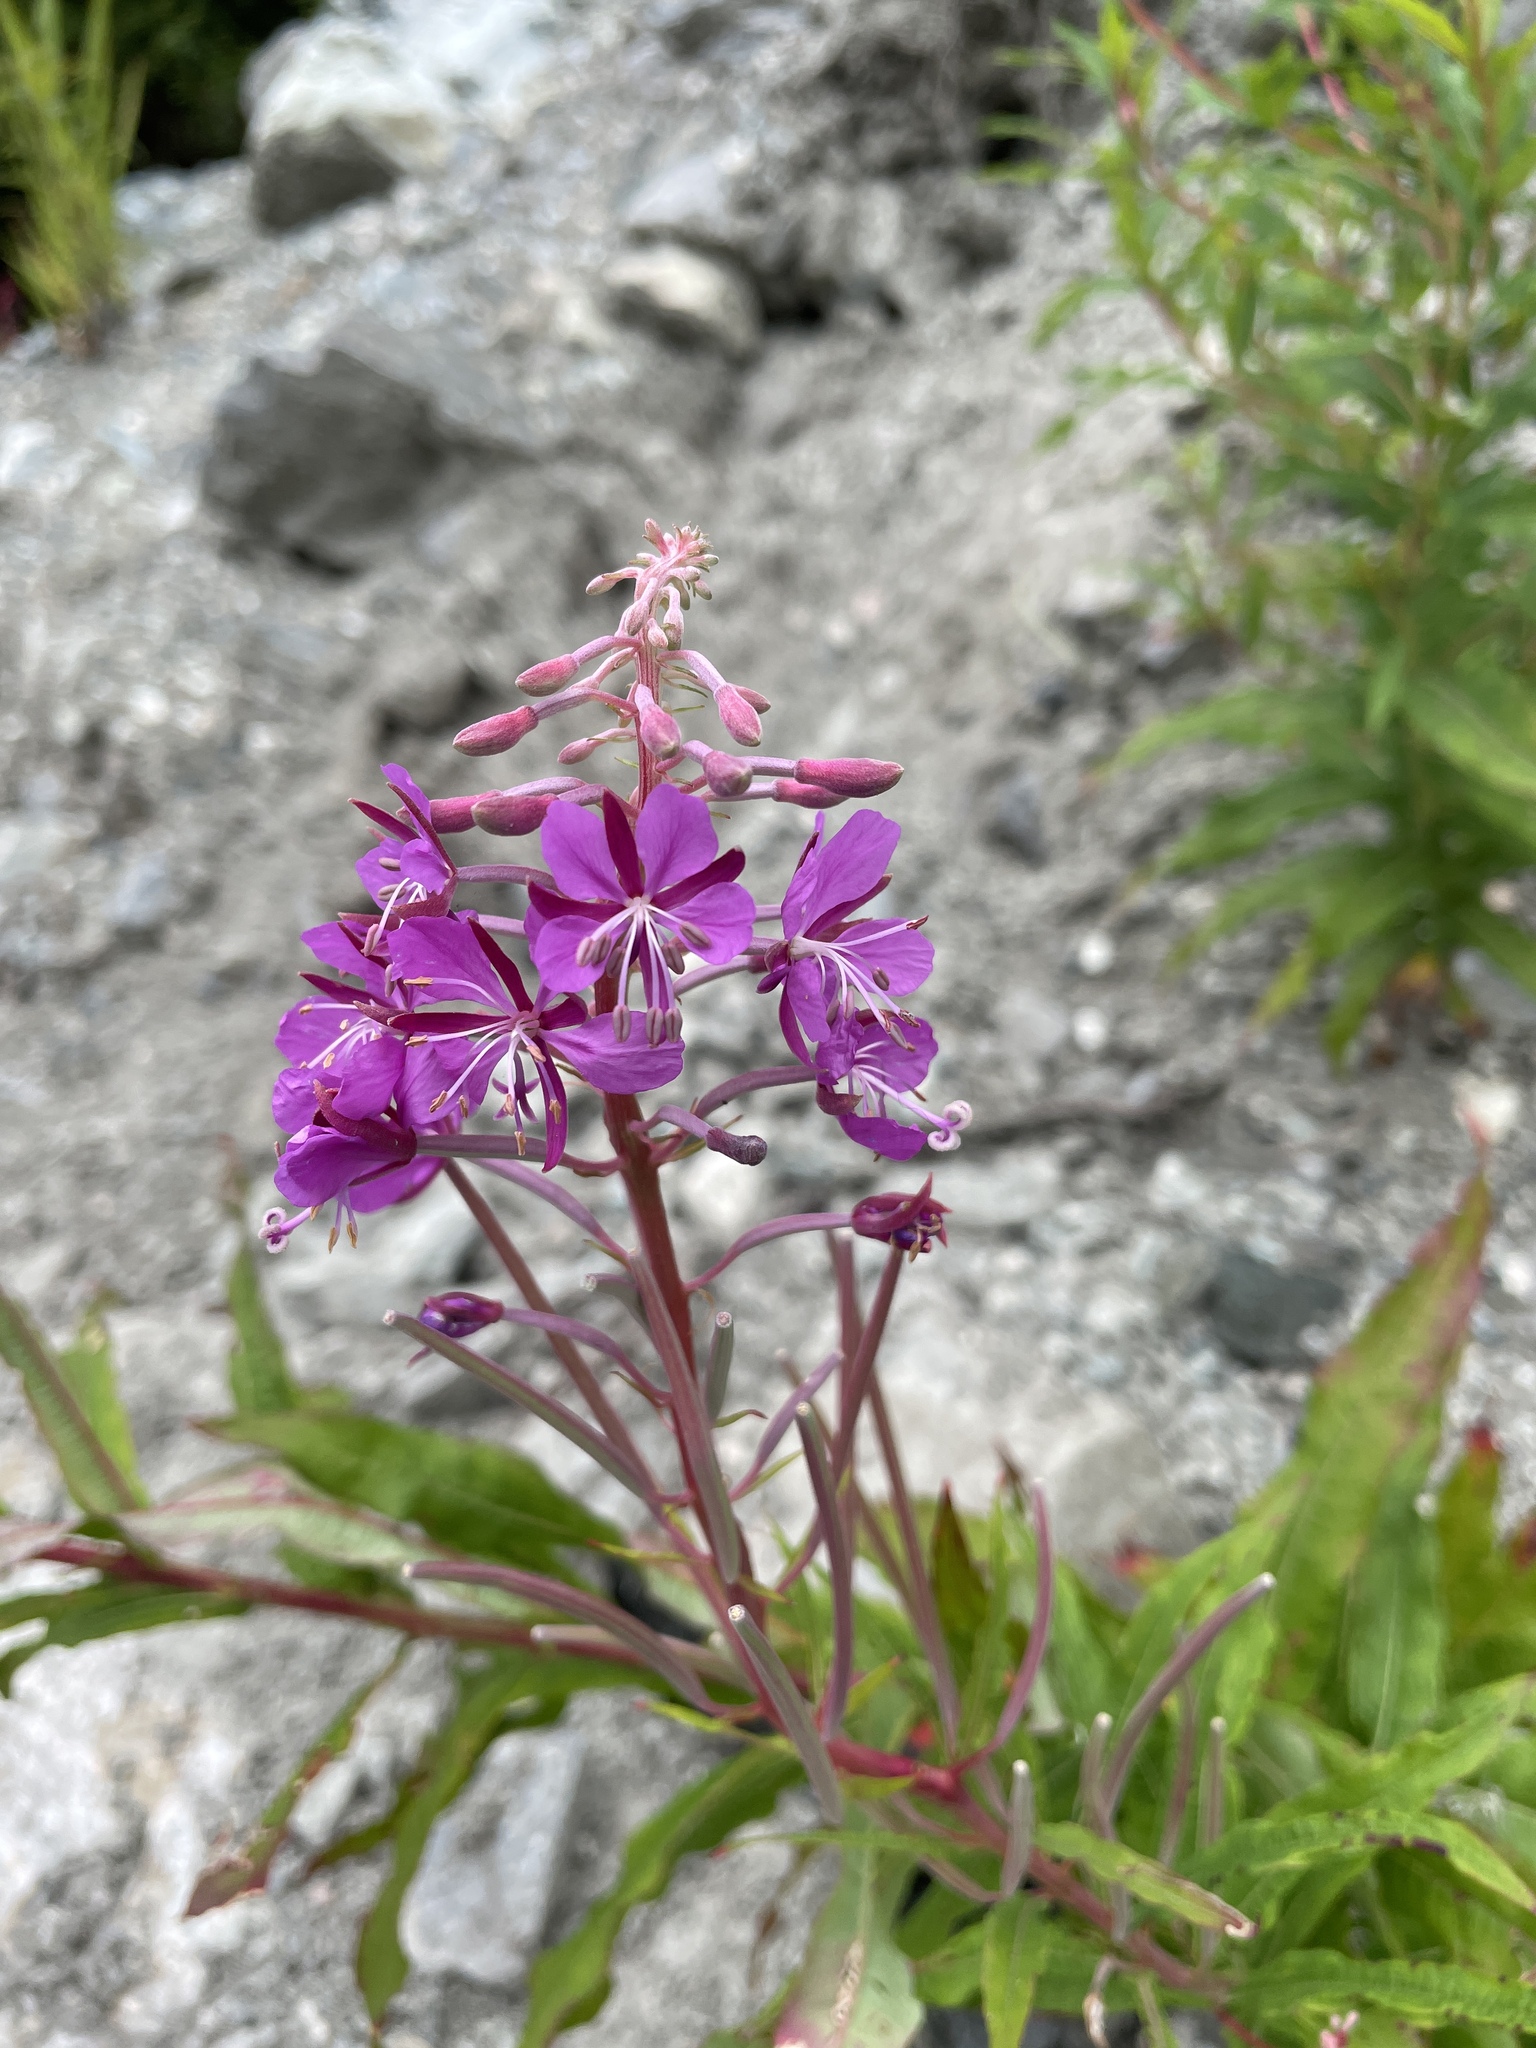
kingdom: Plantae
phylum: Tracheophyta
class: Magnoliopsida
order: Myrtales
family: Onagraceae
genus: Chamaenerion
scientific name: Chamaenerion angustifolium
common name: Fireweed
